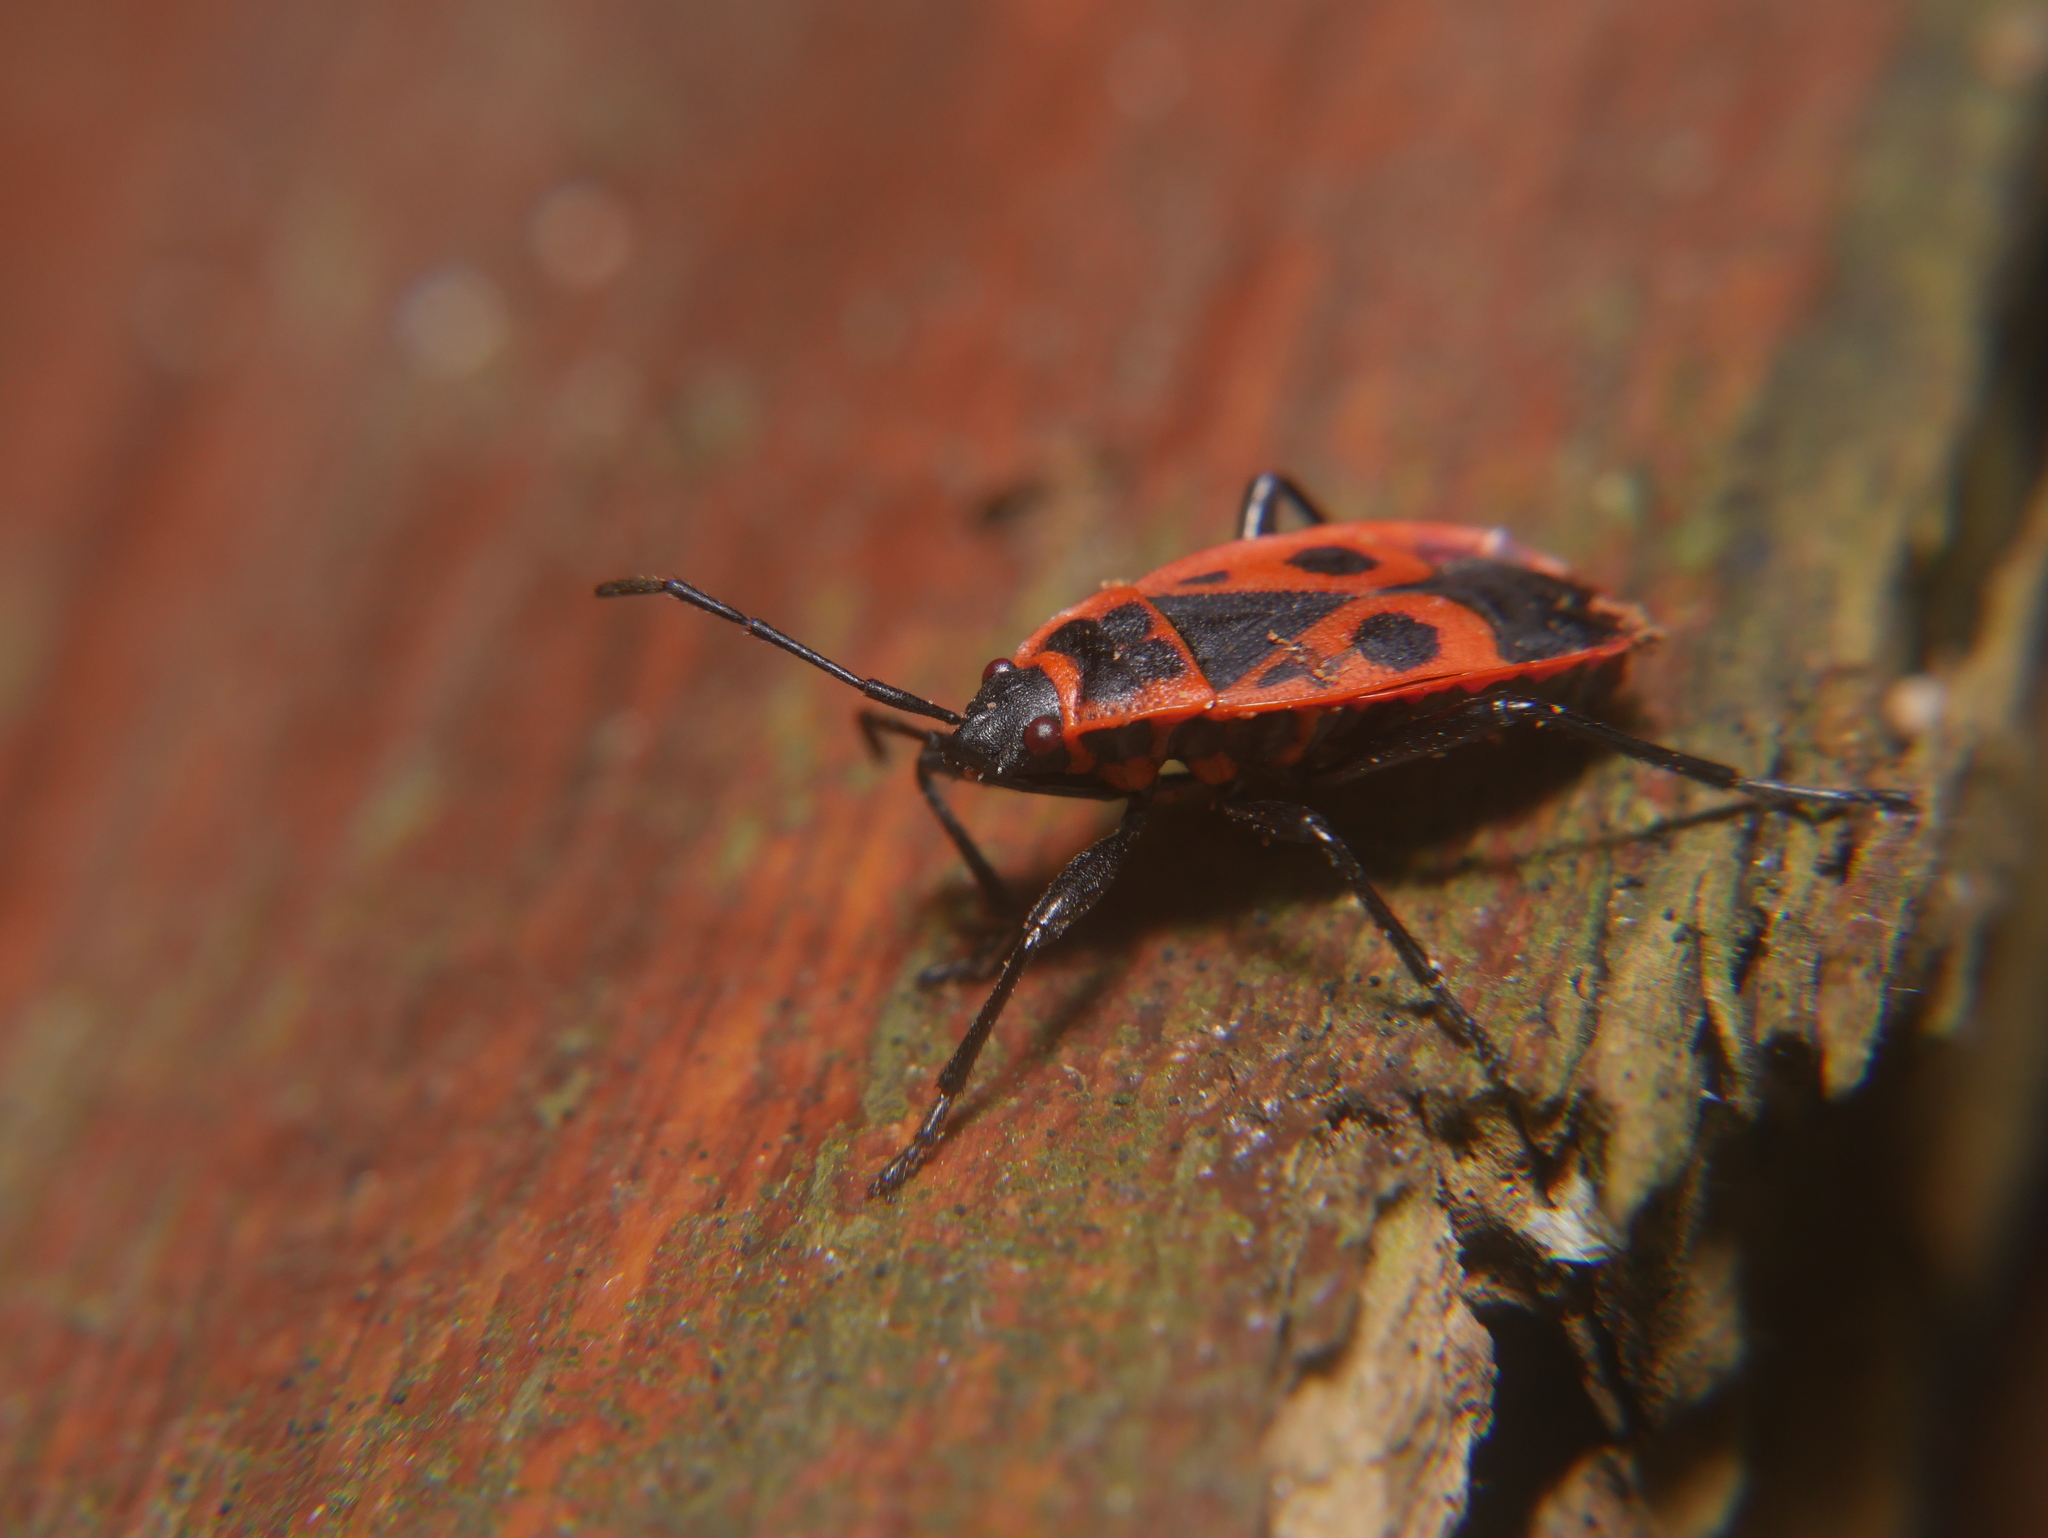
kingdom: Animalia
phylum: Arthropoda
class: Insecta
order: Hemiptera
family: Pyrrhocoridae
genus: Pyrrhocoris
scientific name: Pyrrhocoris apterus
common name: Firebug
